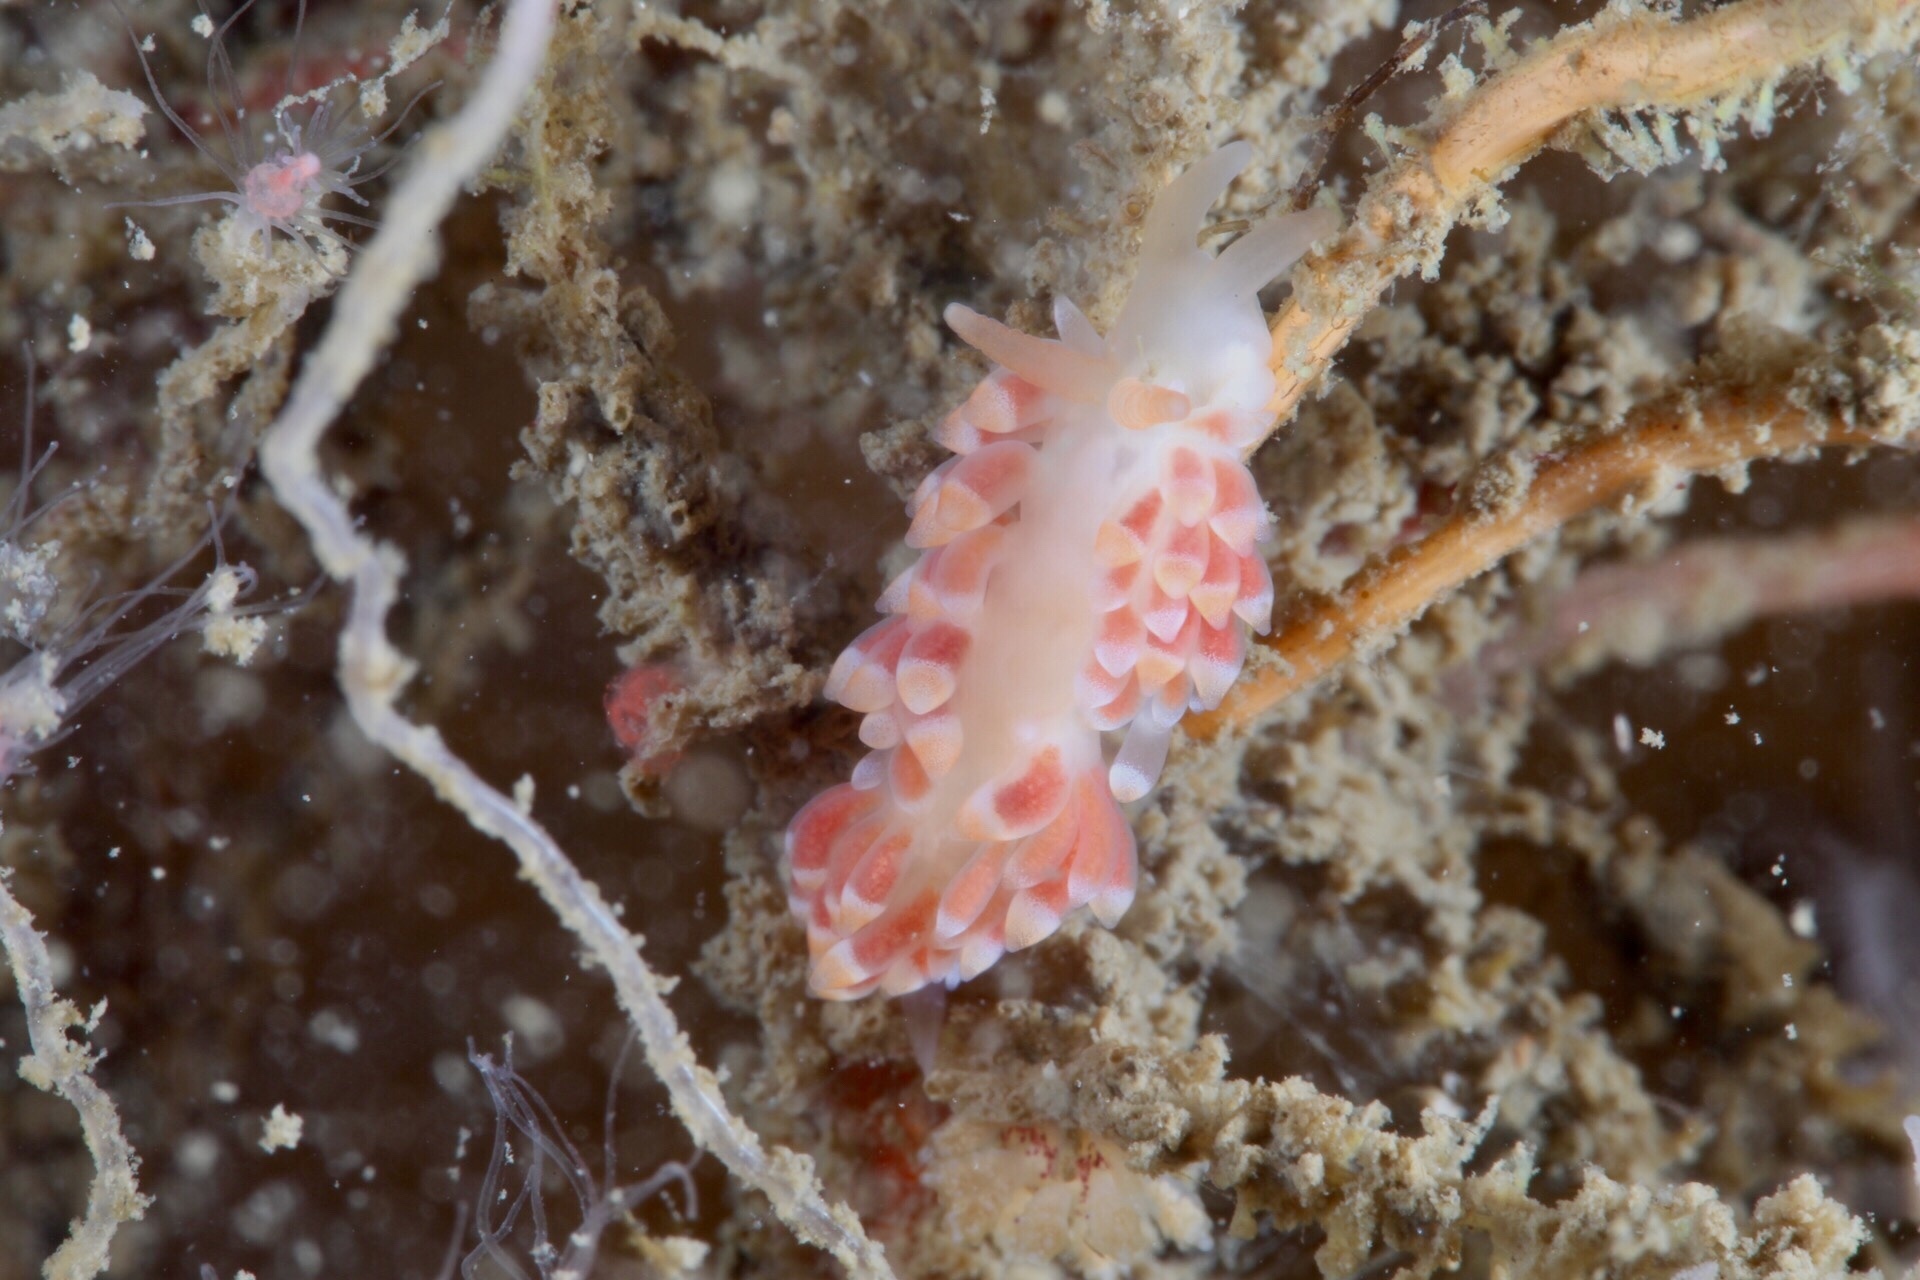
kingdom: Animalia
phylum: Mollusca
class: Gastropoda
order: Nudibranchia
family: Trinchesiidae
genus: Catriona
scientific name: Catriona aurantia
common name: Corange-tip cuthona
